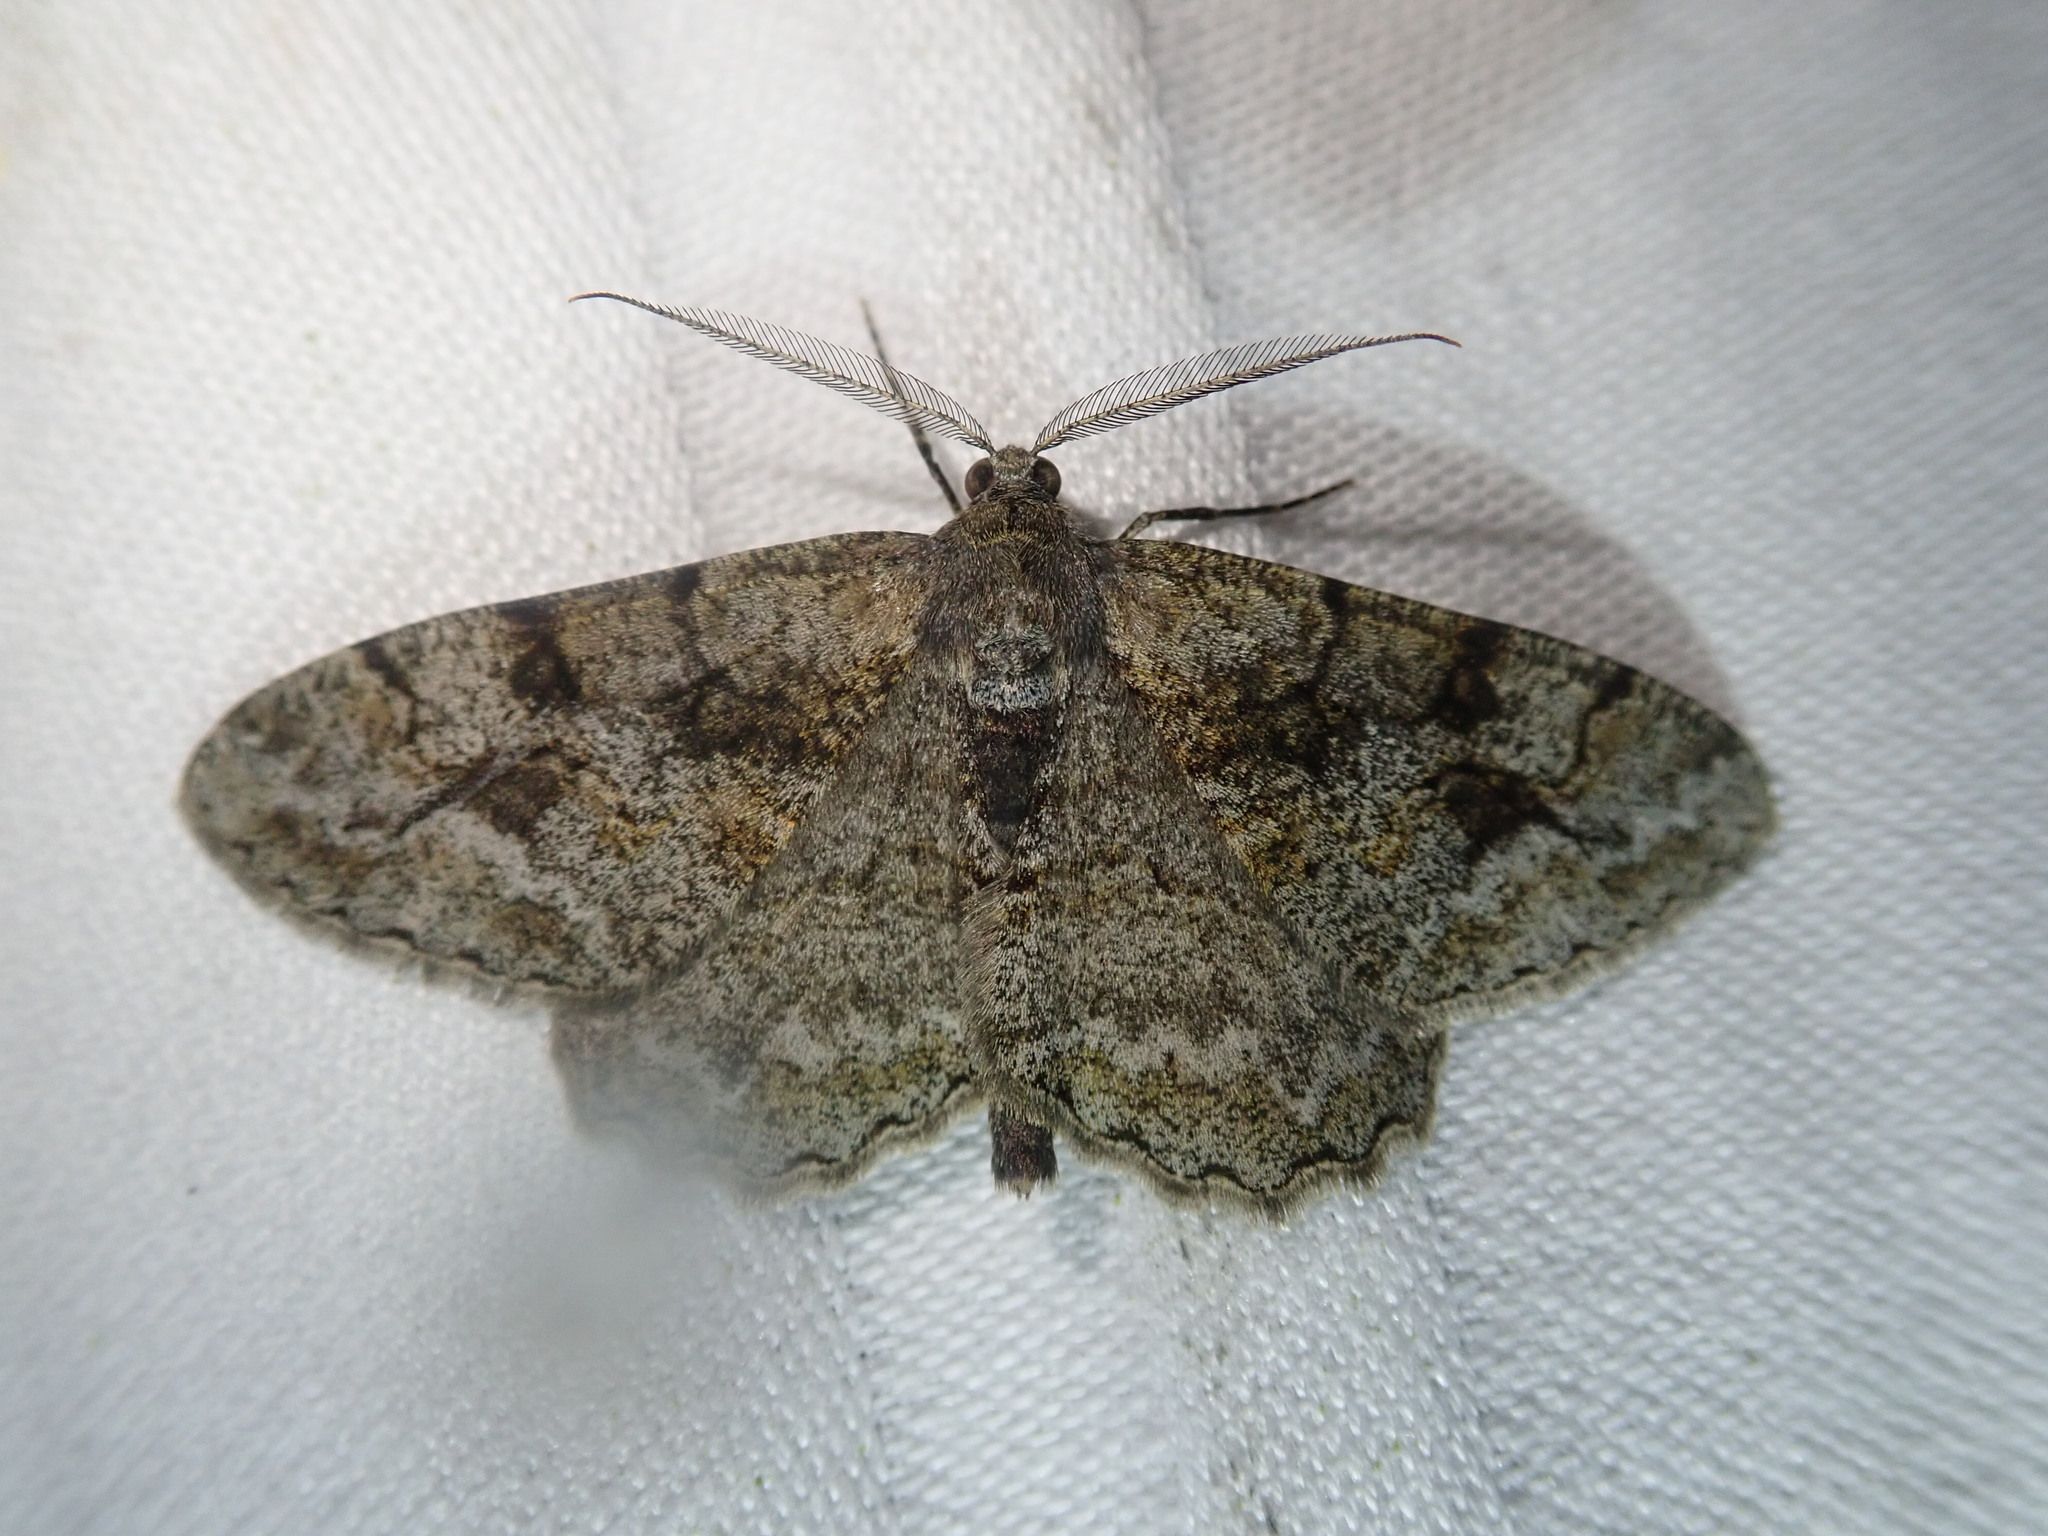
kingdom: Animalia
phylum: Arthropoda
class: Insecta
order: Lepidoptera
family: Geometridae
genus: Alcis
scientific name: Alcis repandata
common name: Mottled beauty
